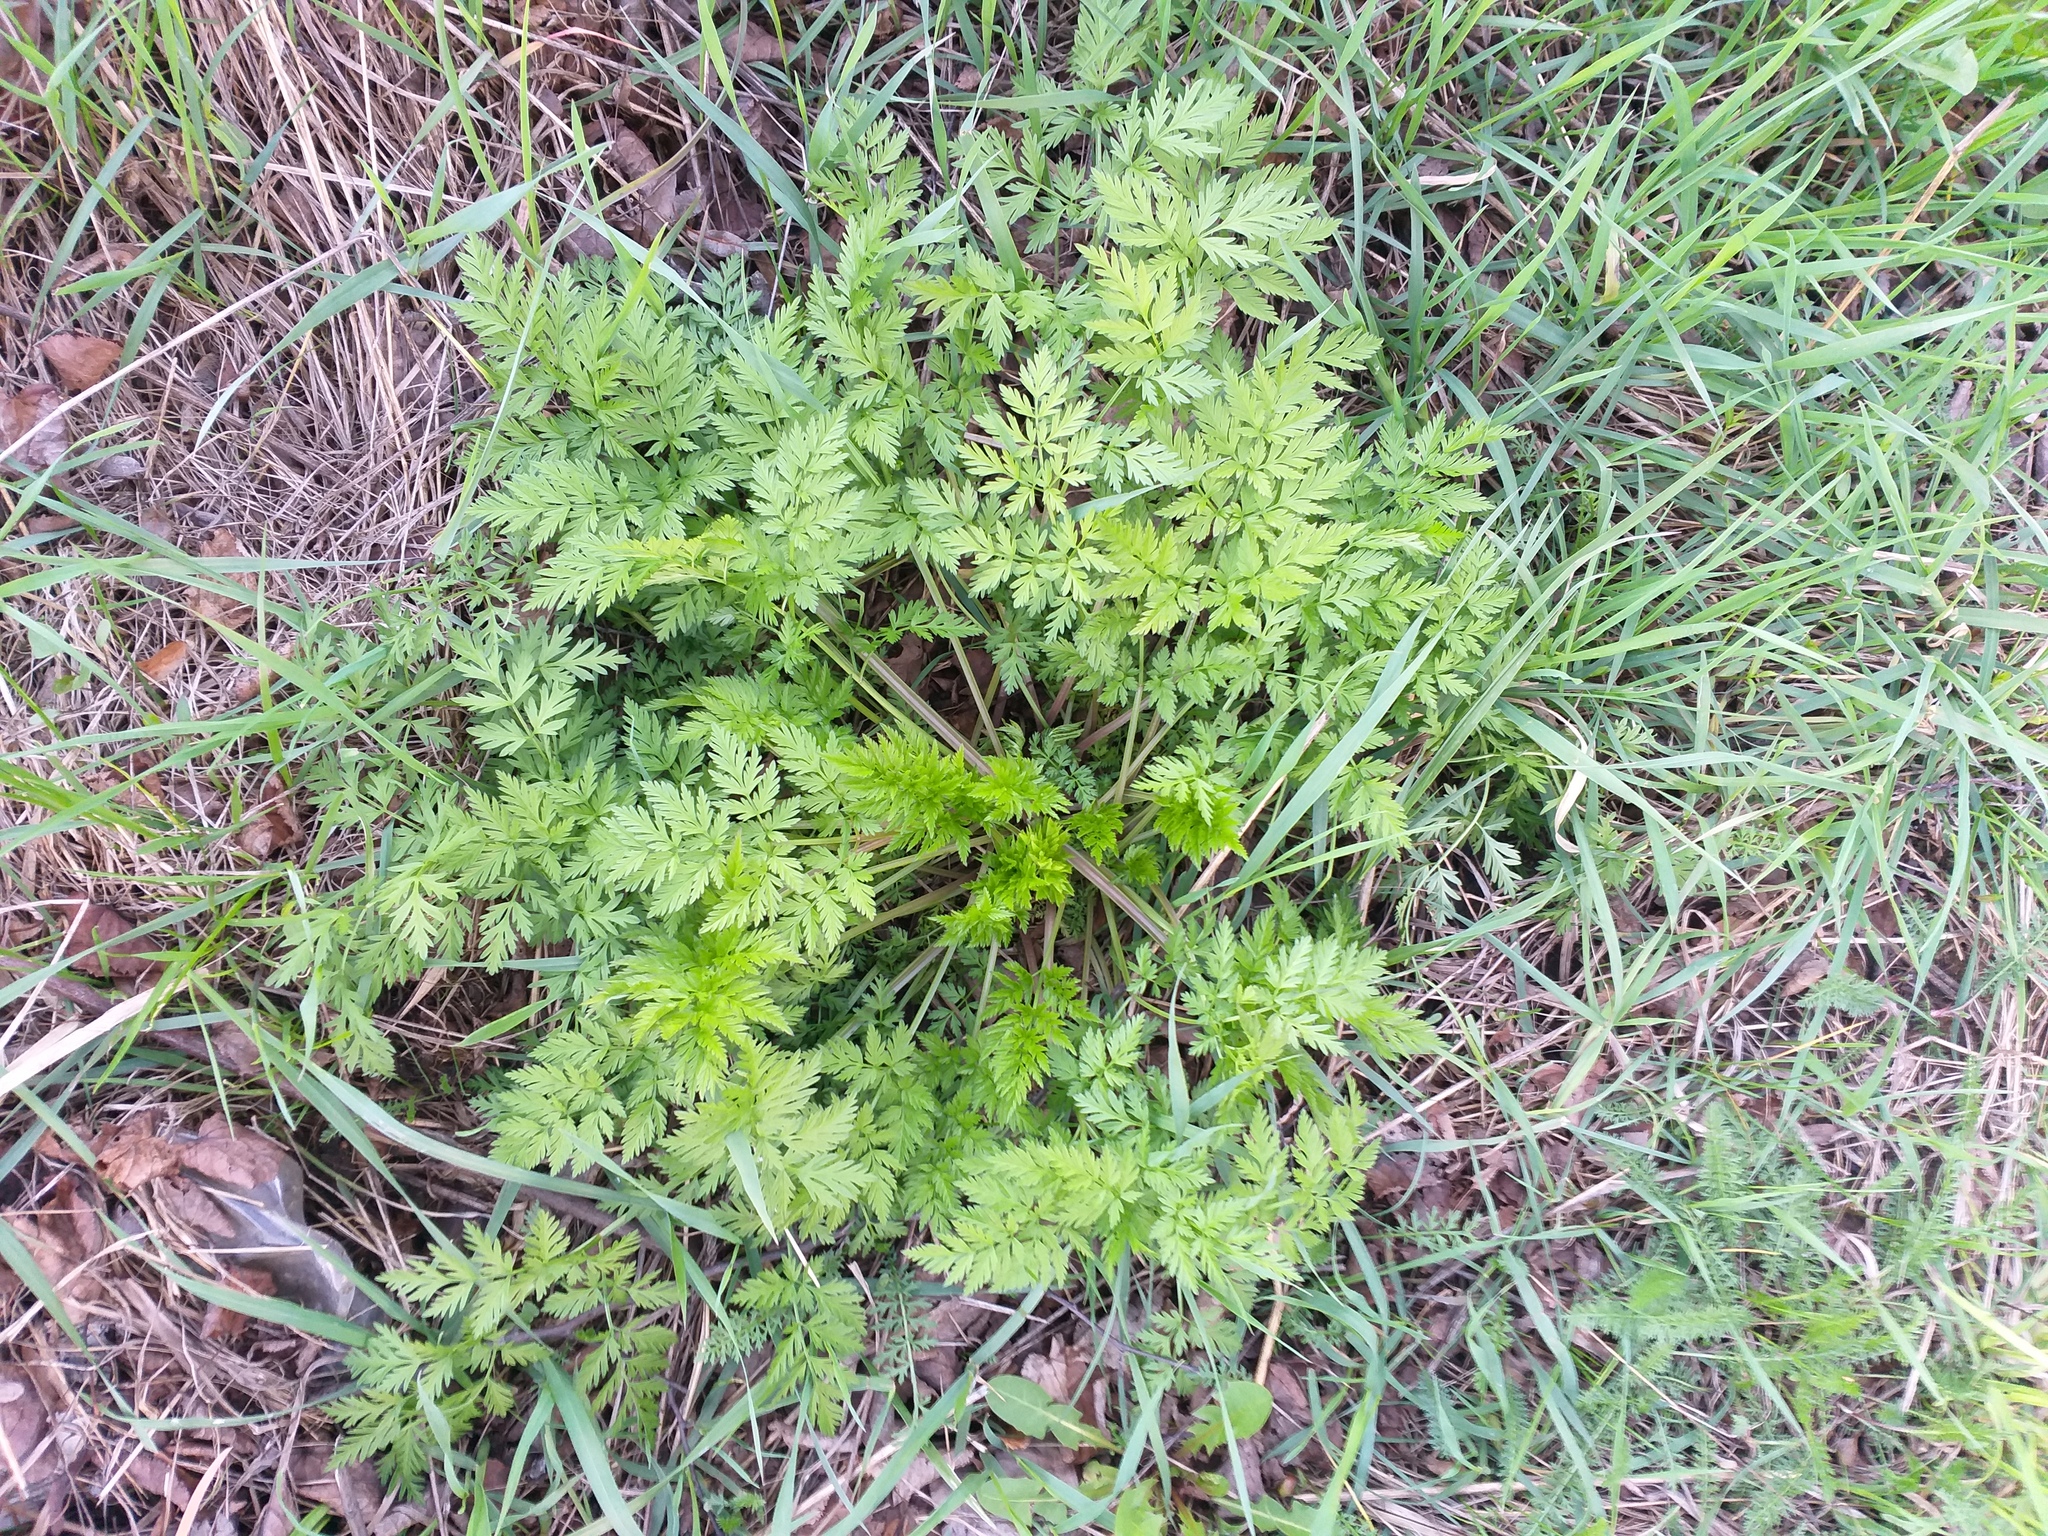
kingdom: Plantae
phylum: Tracheophyta
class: Magnoliopsida
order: Apiales
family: Apiaceae
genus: Anthriscus
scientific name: Anthriscus sylvestris
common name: Cow parsley
